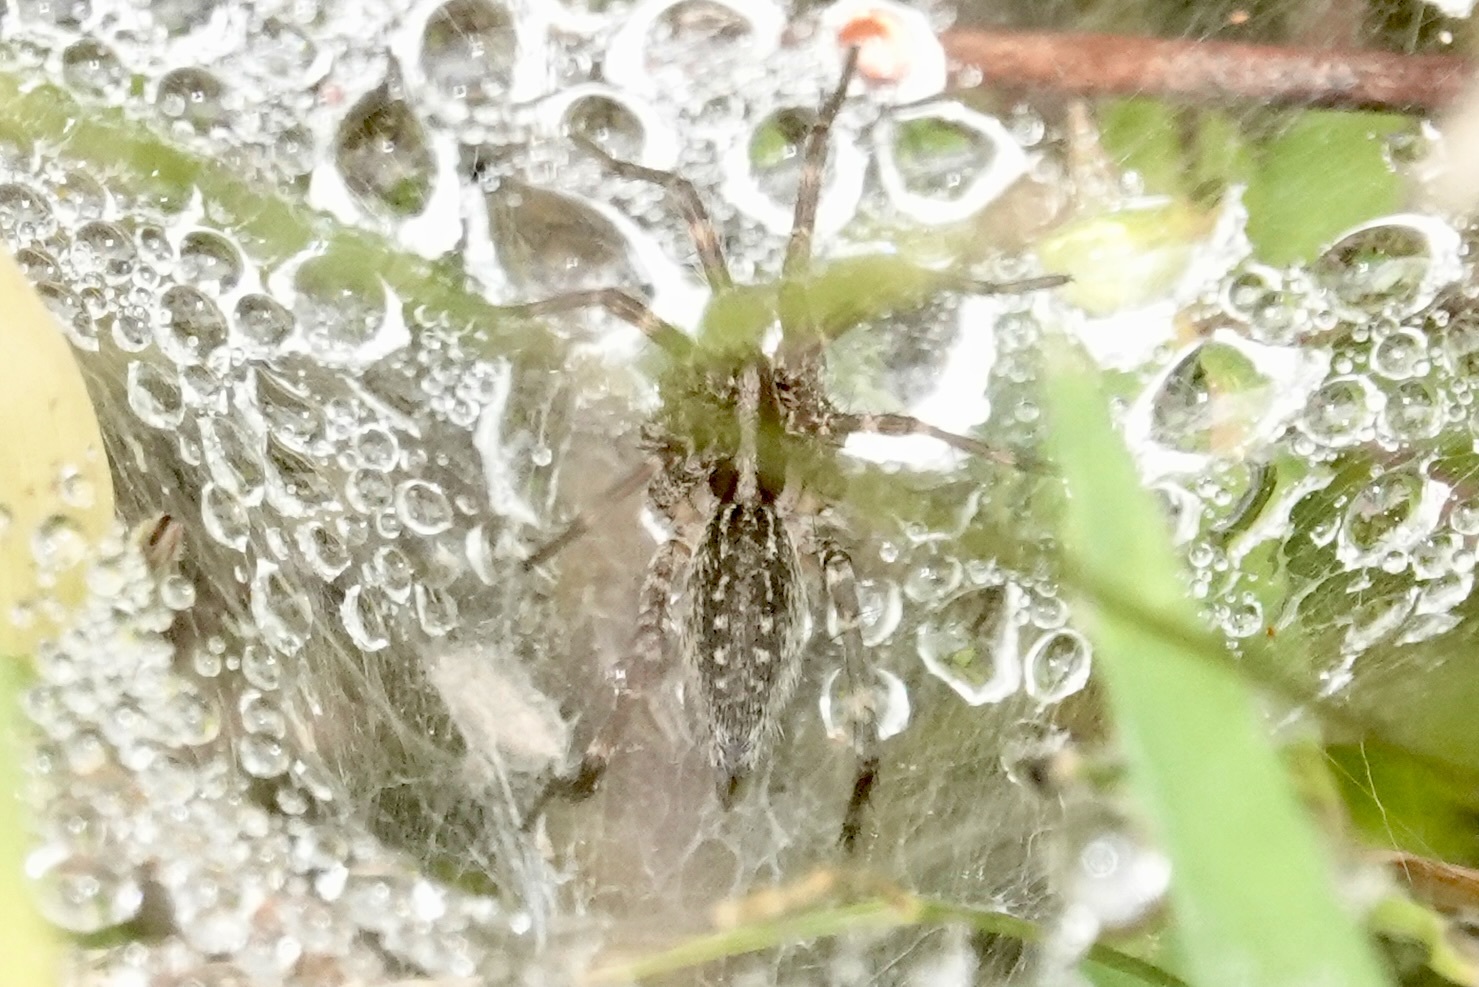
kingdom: Animalia
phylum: Arthropoda
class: Arachnida
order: Araneae
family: Agelenidae
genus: Agelenopsis
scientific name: Agelenopsis
